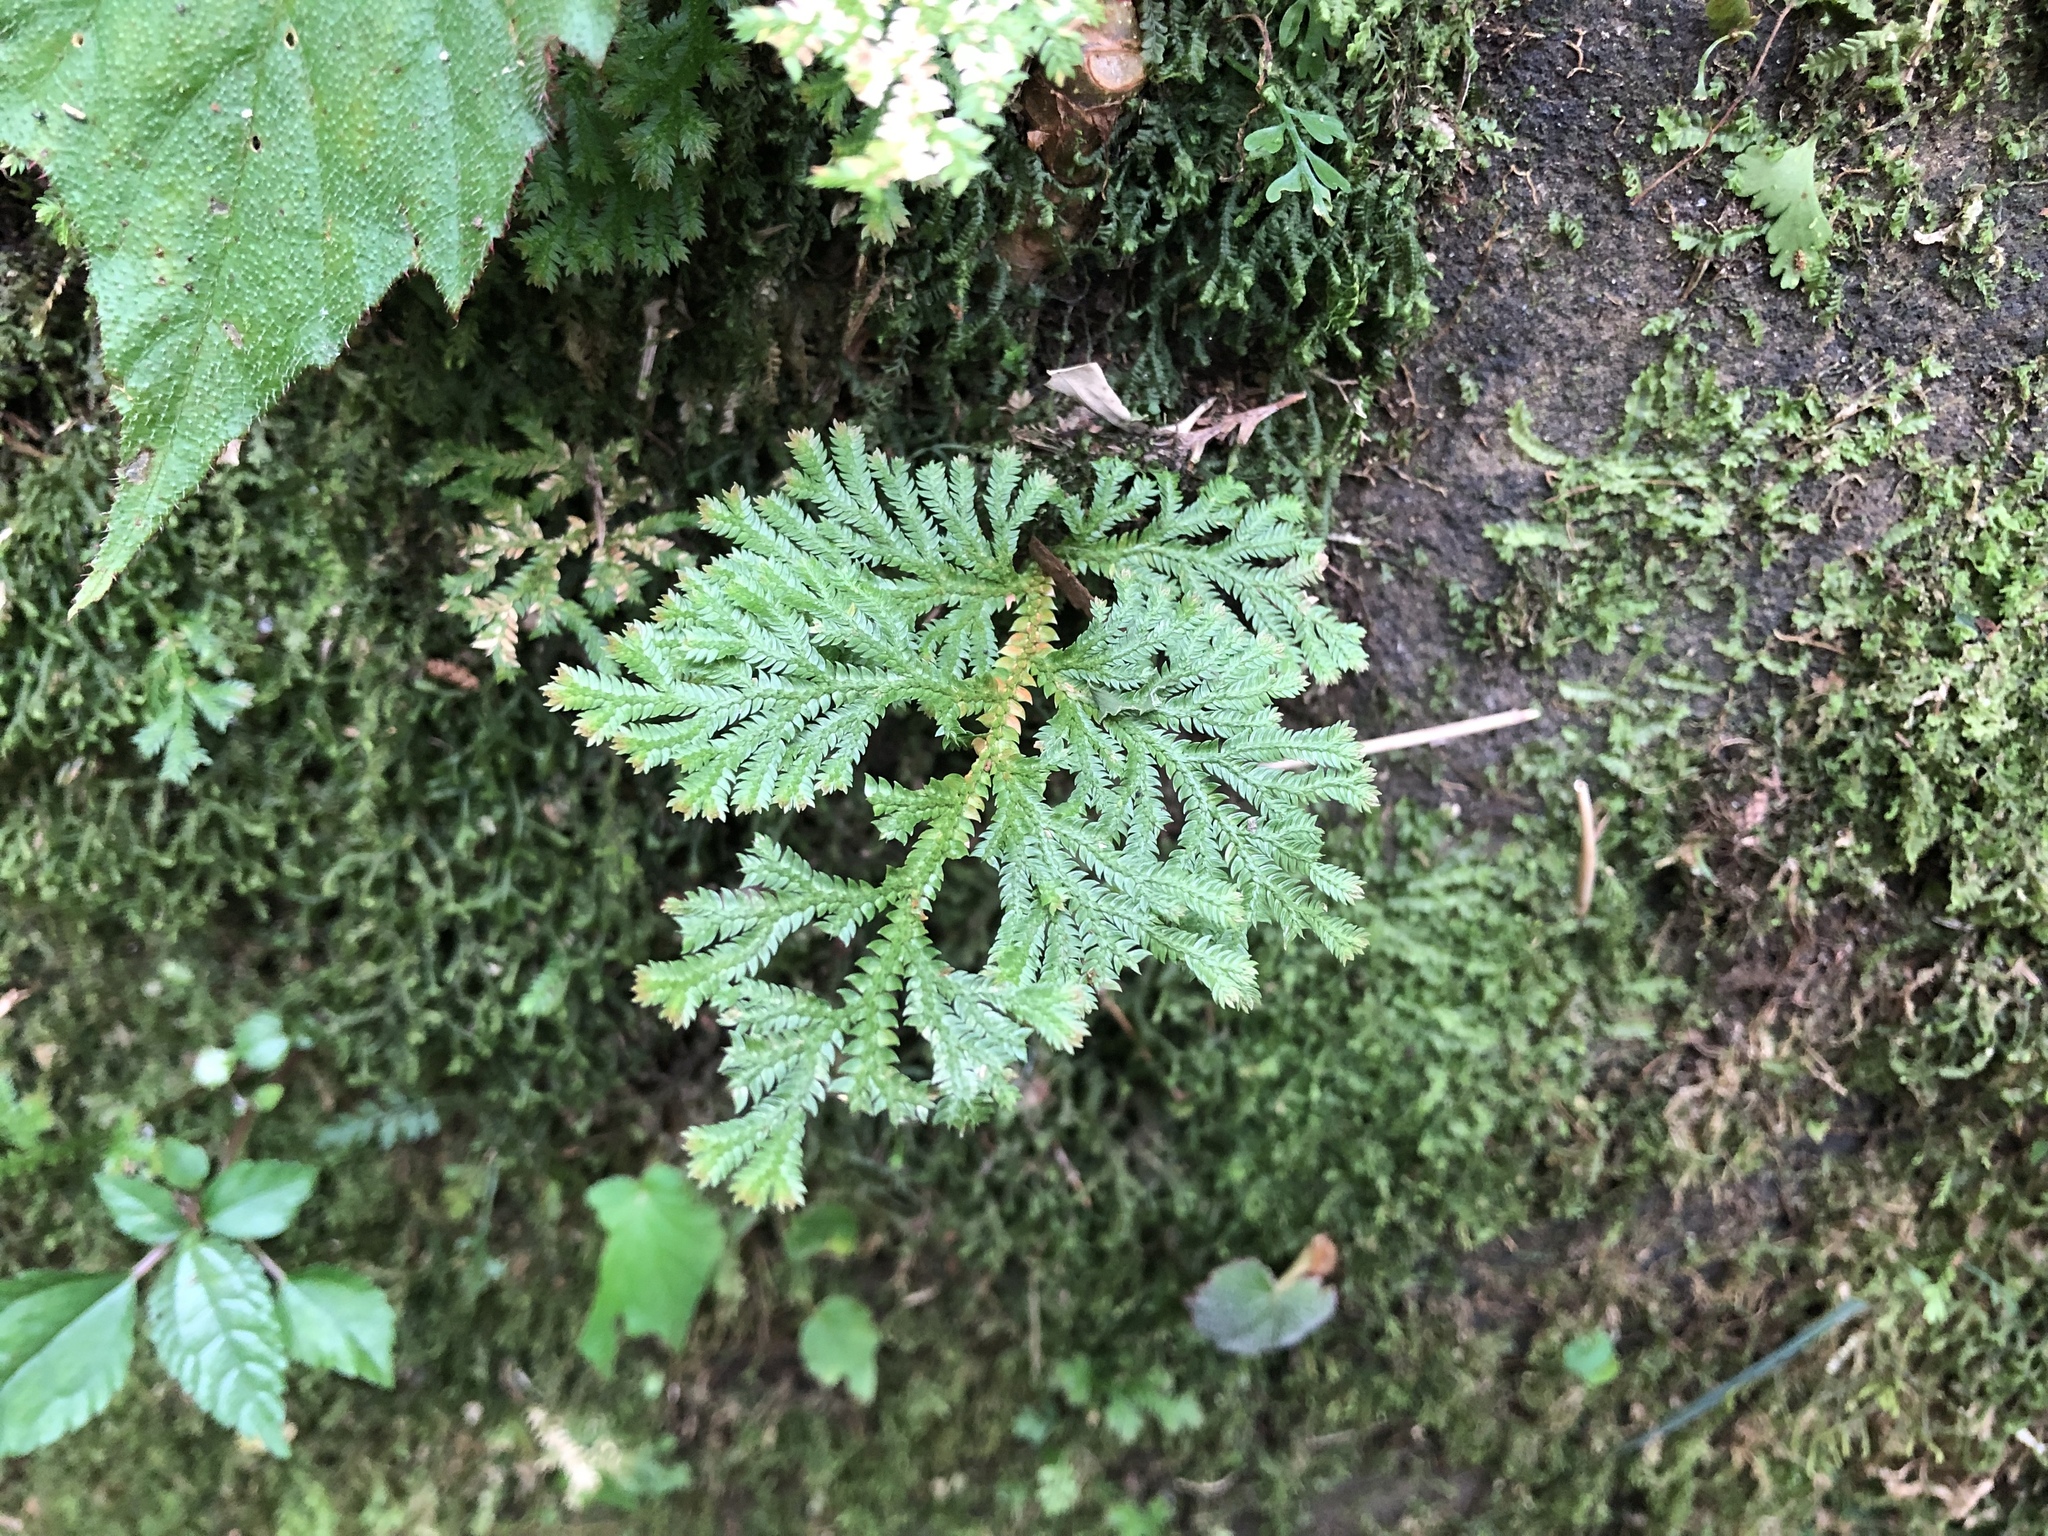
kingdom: Plantae
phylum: Tracheophyta
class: Lycopodiopsida
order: Selaginellales
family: Selaginellaceae
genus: Selaginella
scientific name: Selaginella doederleinii
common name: Greater selaginella
